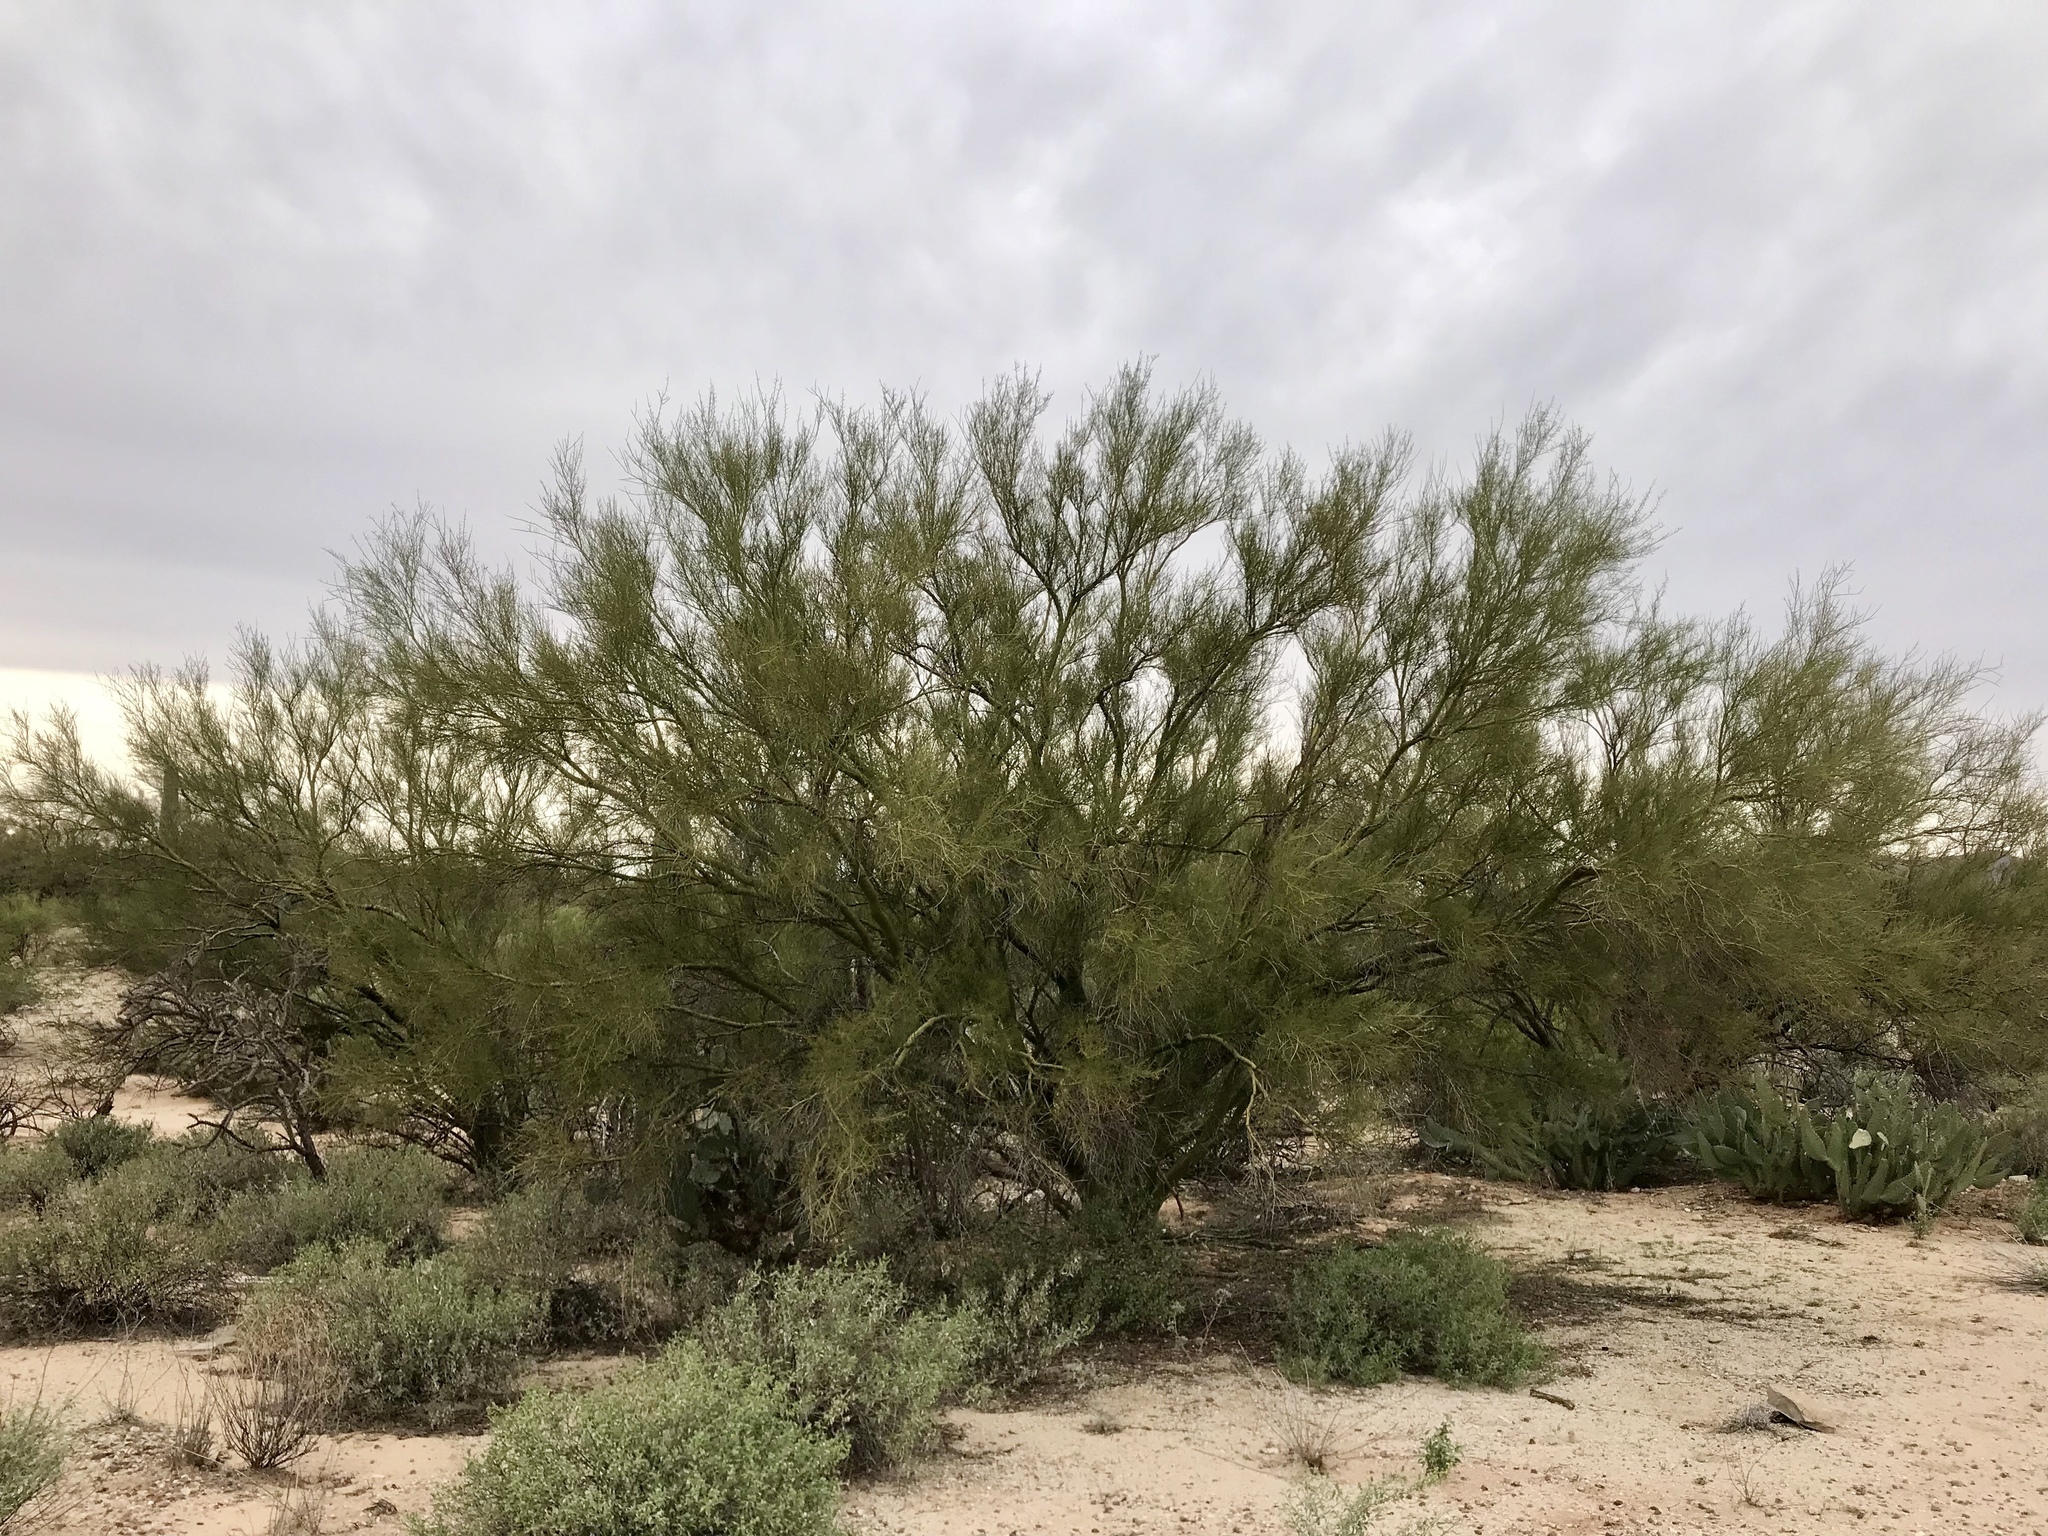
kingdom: Plantae
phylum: Tracheophyta
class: Magnoliopsida
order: Fabales
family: Fabaceae
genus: Parkinsonia
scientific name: Parkinsonia microphylla
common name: Yellow paloverde
